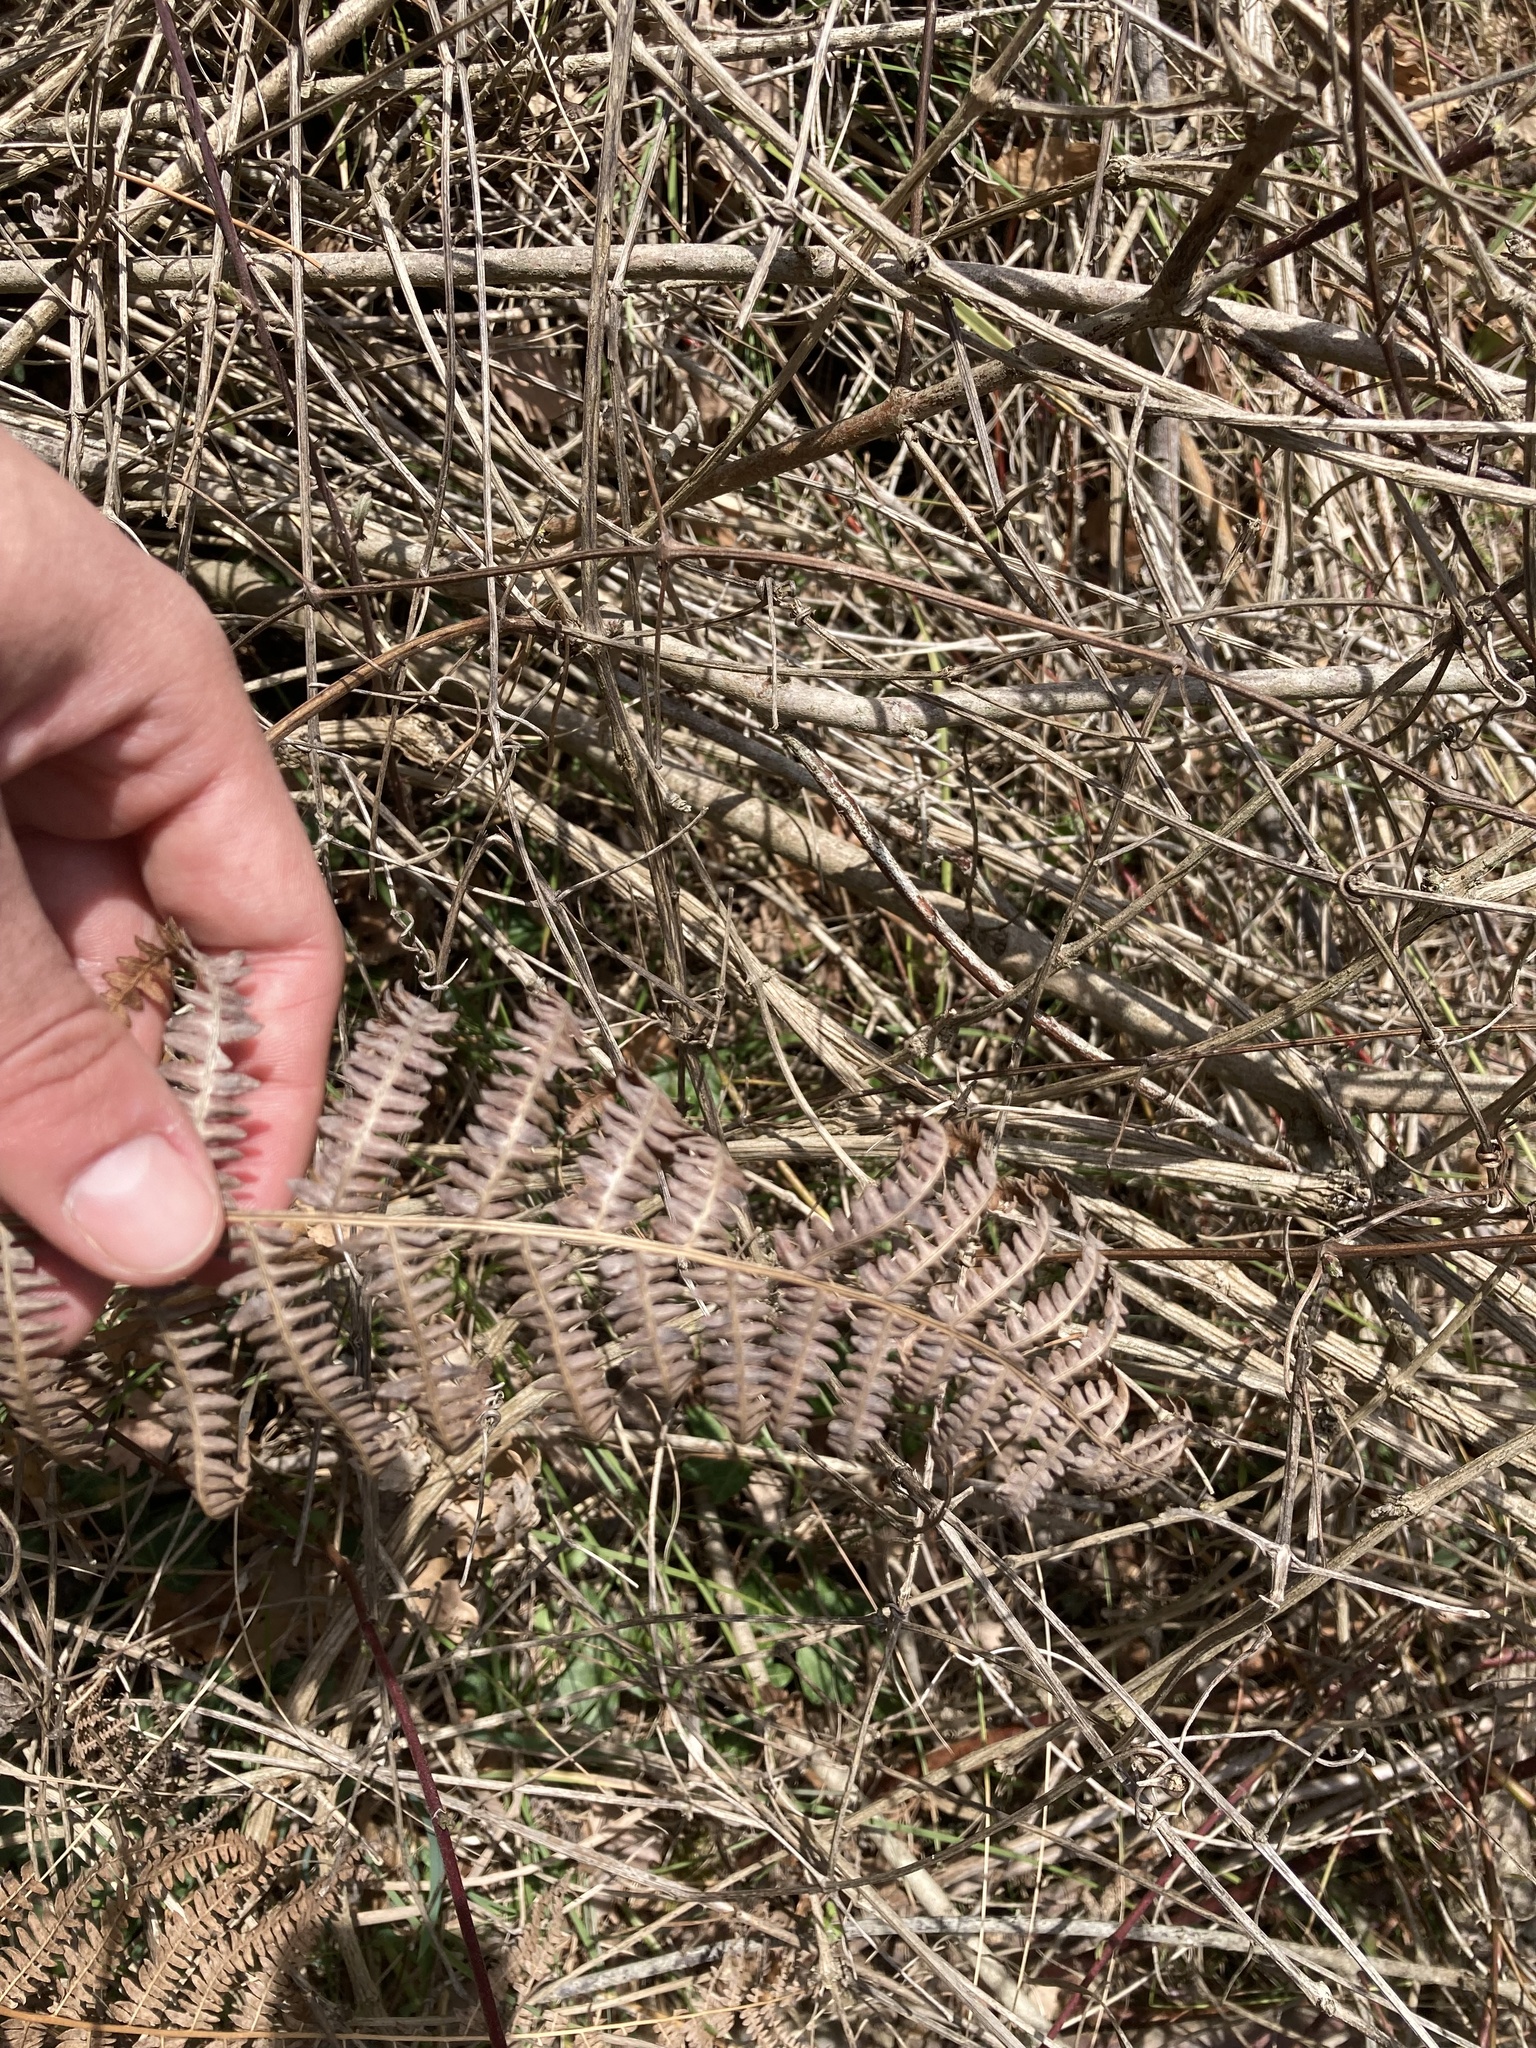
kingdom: Plantae
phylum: Tracheophyta
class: Polypodiopsida
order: Polypodiales
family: Dennstaedtiaceae
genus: Pteridium
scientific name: Pteridium aquilinum
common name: Bracken
